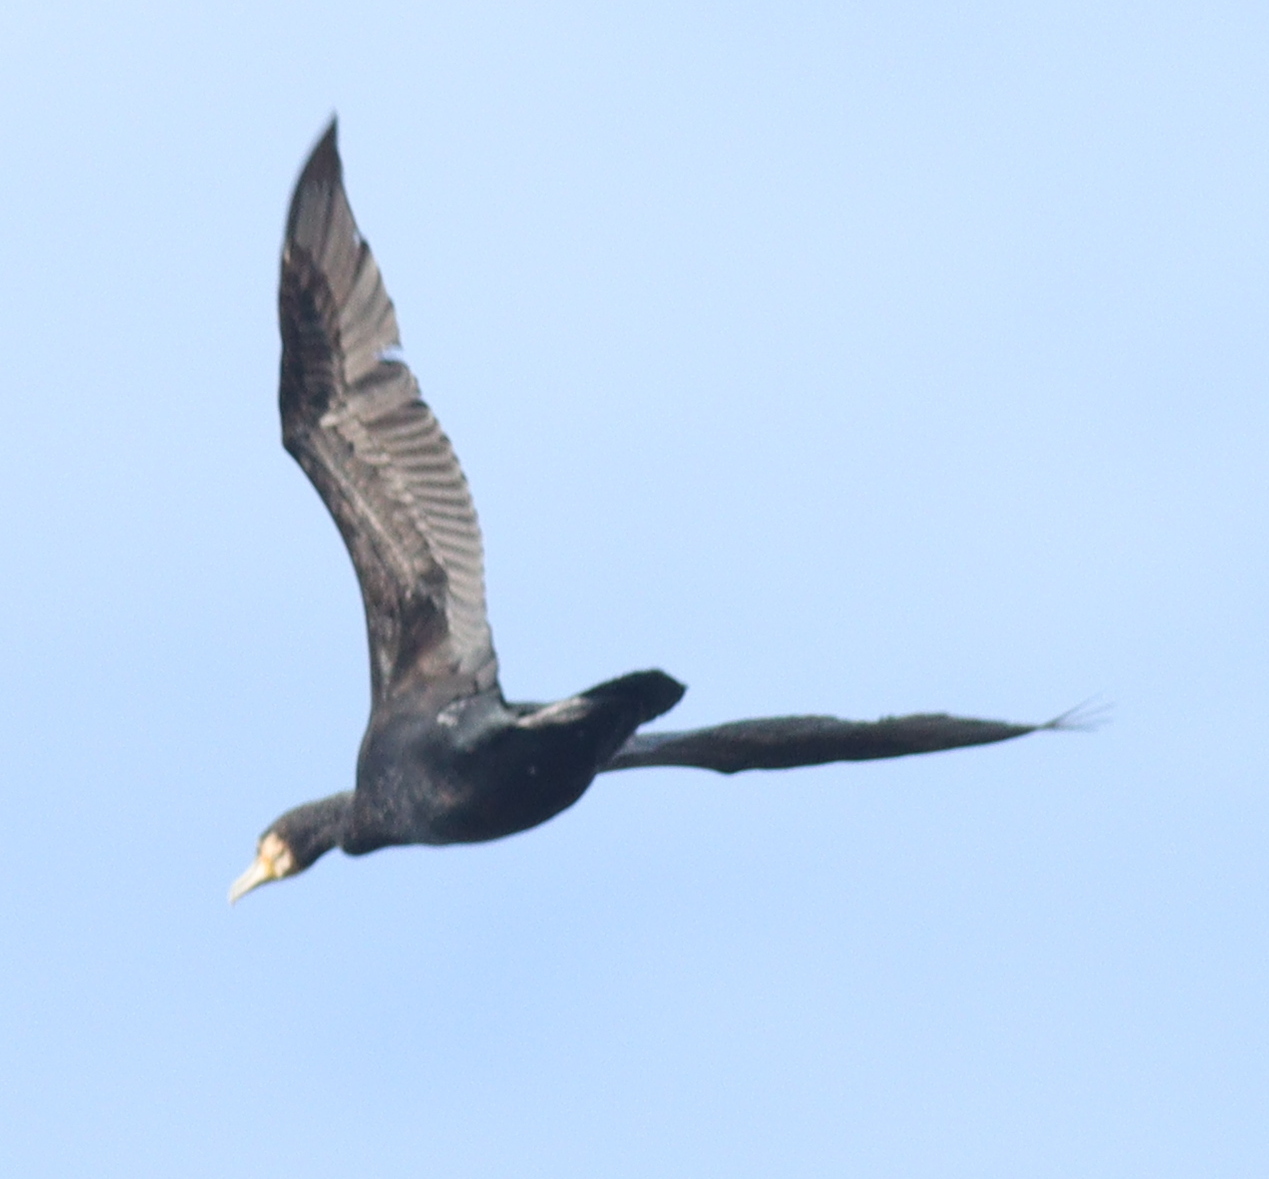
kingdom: Animalia
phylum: Chordata
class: Aves
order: Suliformes
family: Phalacrocoracidae
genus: Phalacrocorax
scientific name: Phalacrocorax carbo
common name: Great cormorant
